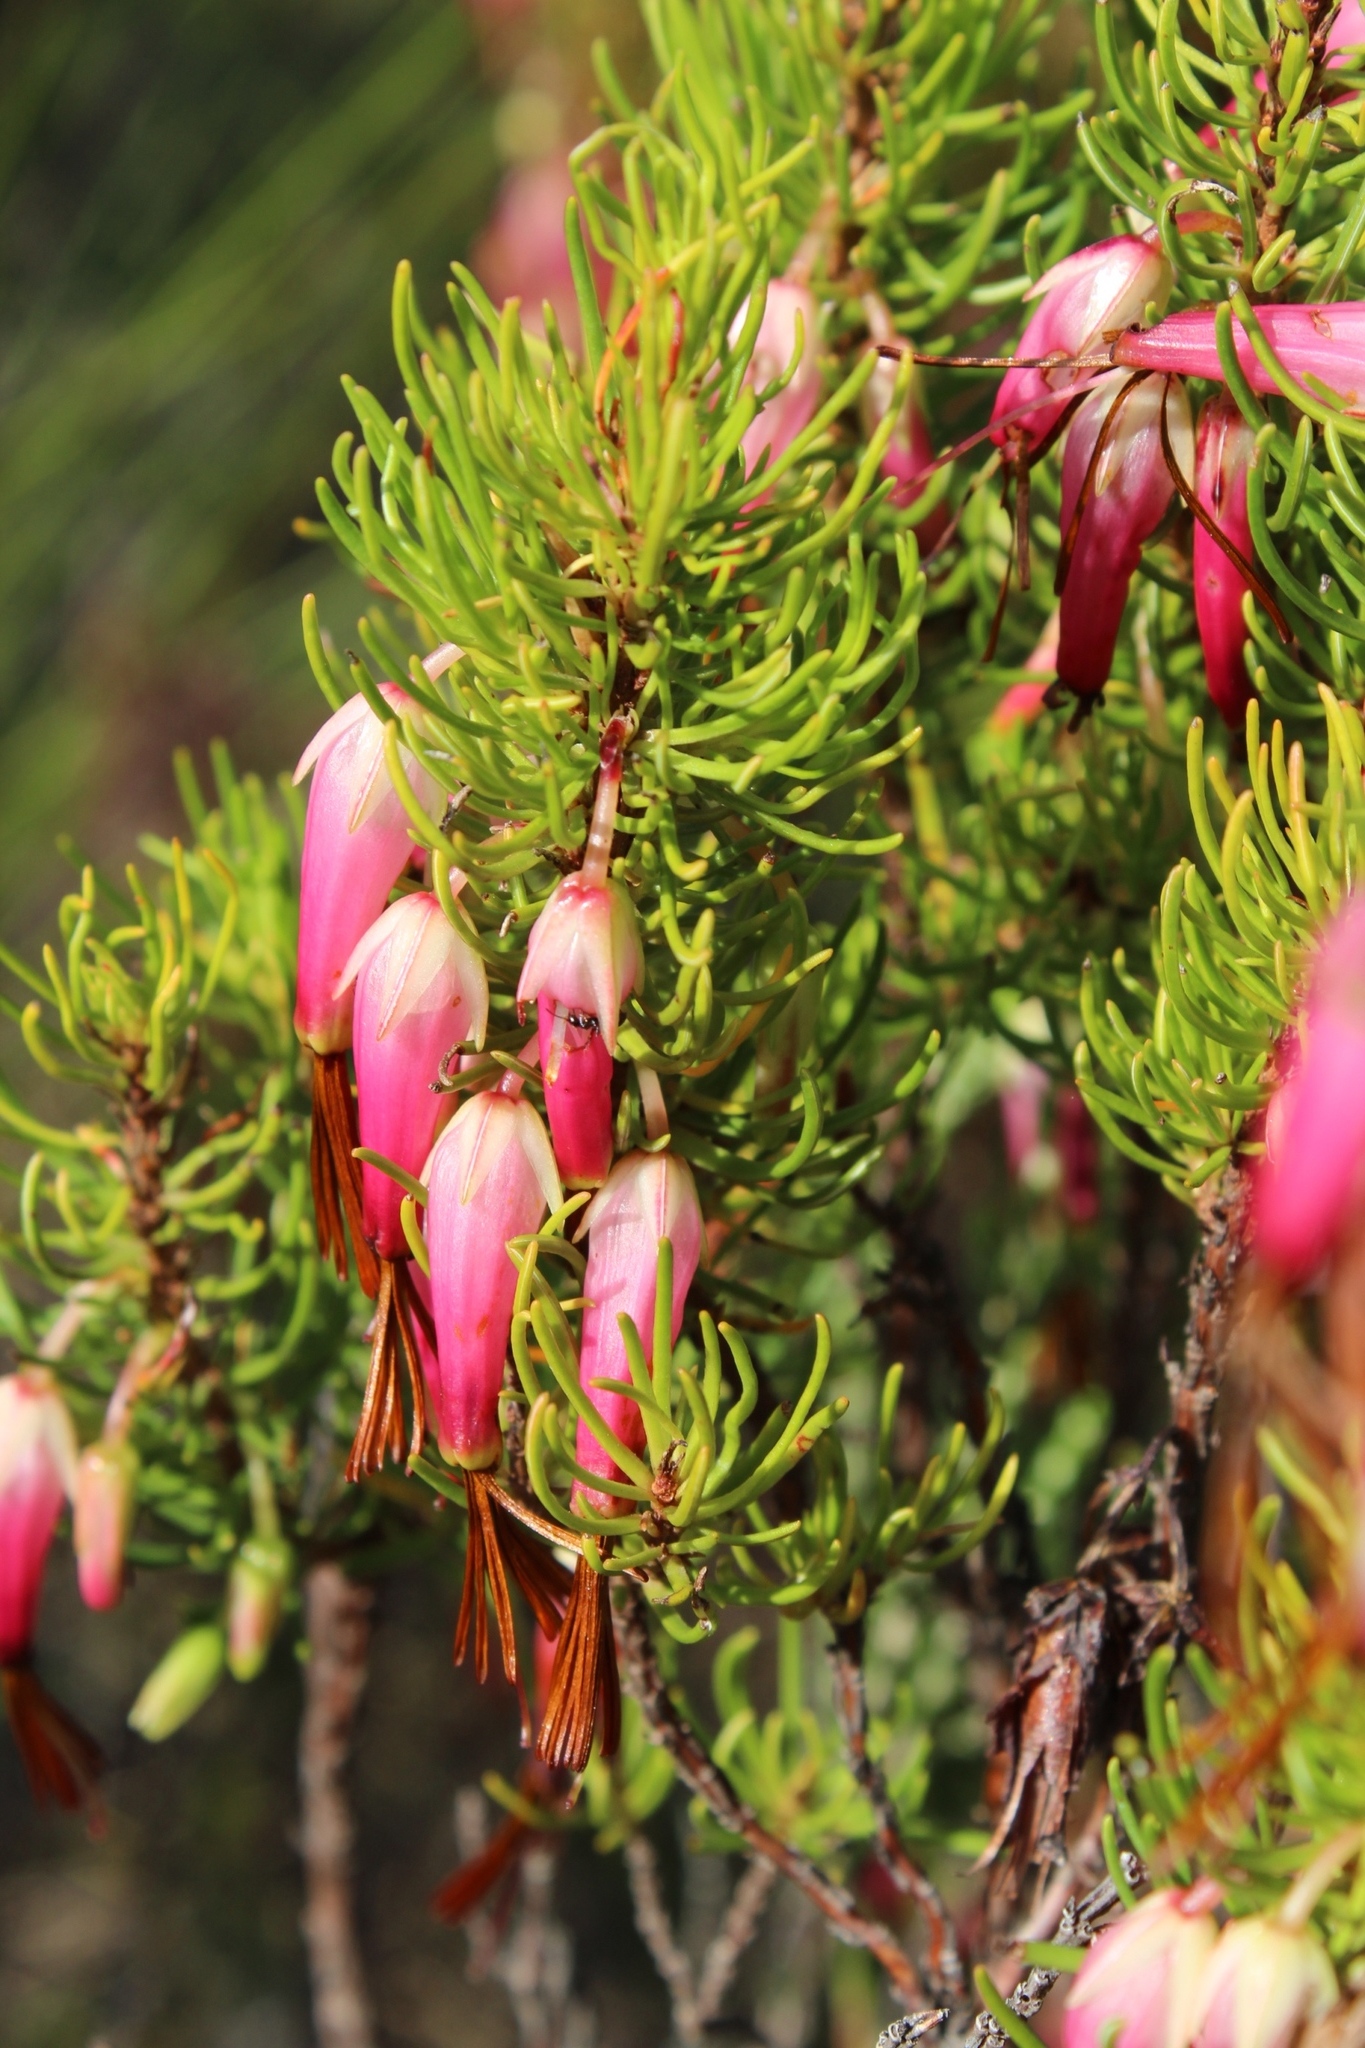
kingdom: Plantae
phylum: Tracheophyta
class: Magnoliopsida
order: Ericales
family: Ericaceae
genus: Erica
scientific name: Erica plukenetii
